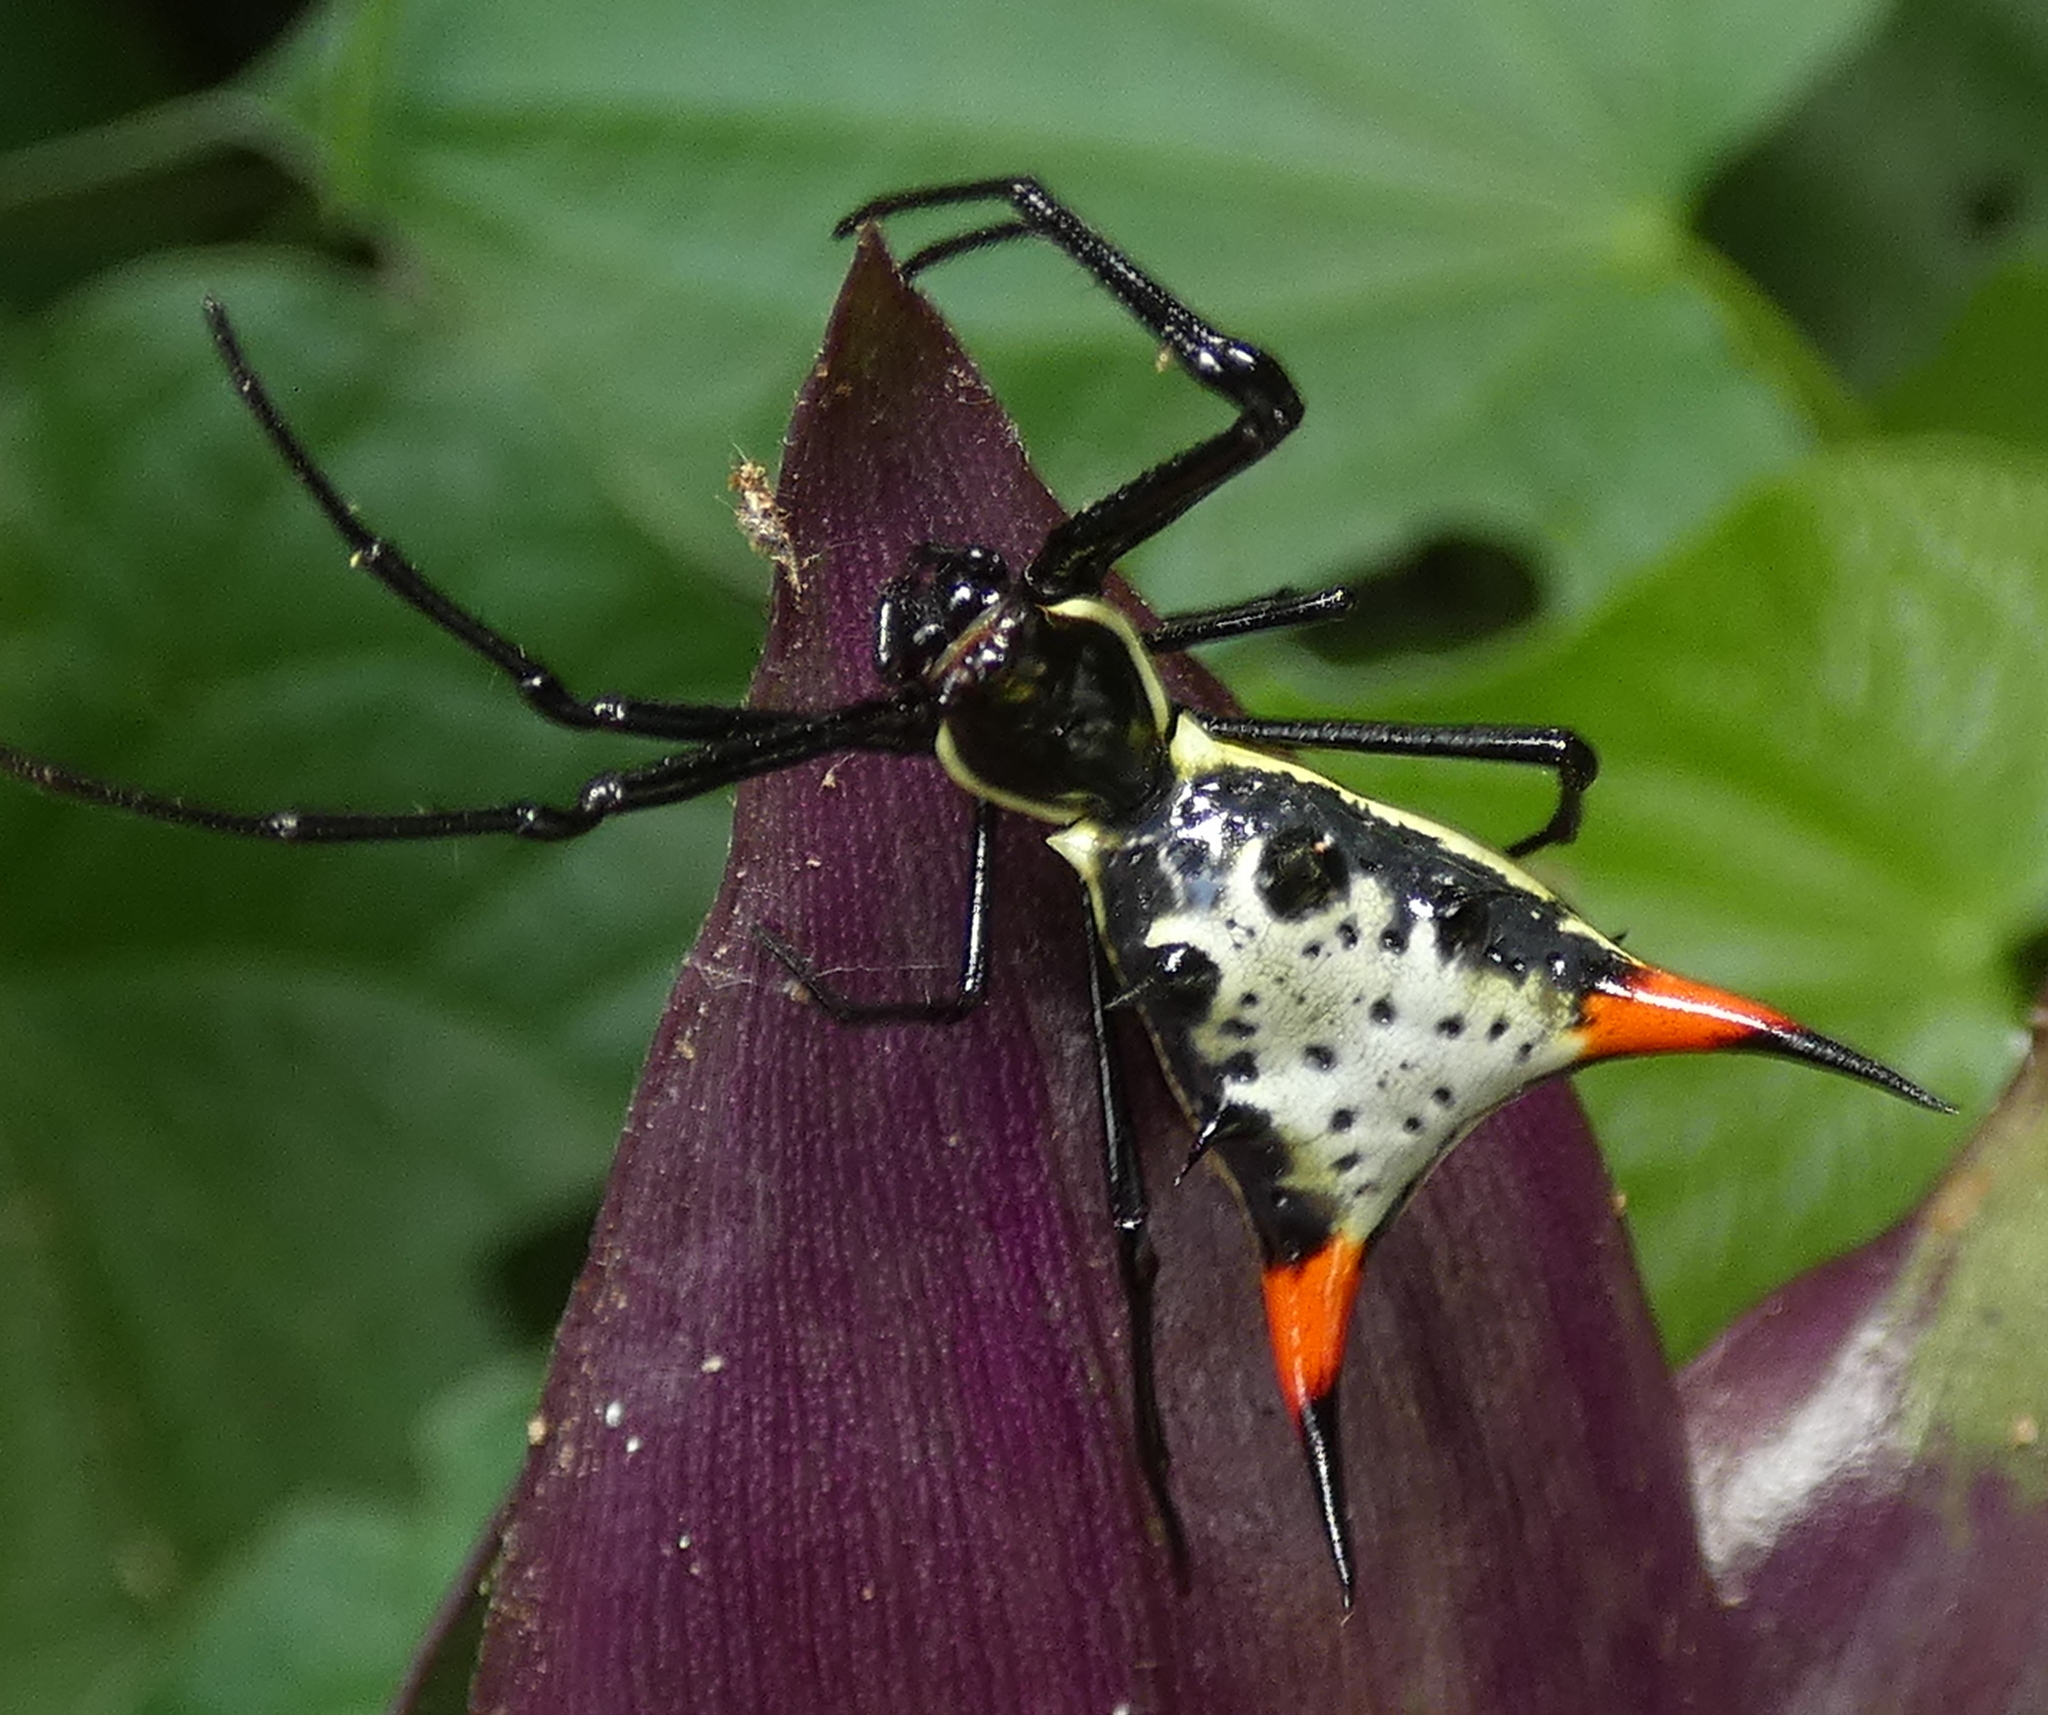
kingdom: Animalia
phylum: Arthropoda
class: Arachnida
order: Araneae
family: Araneidae
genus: Micrathena
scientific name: Micrathena schreibersi
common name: Orb weavers
